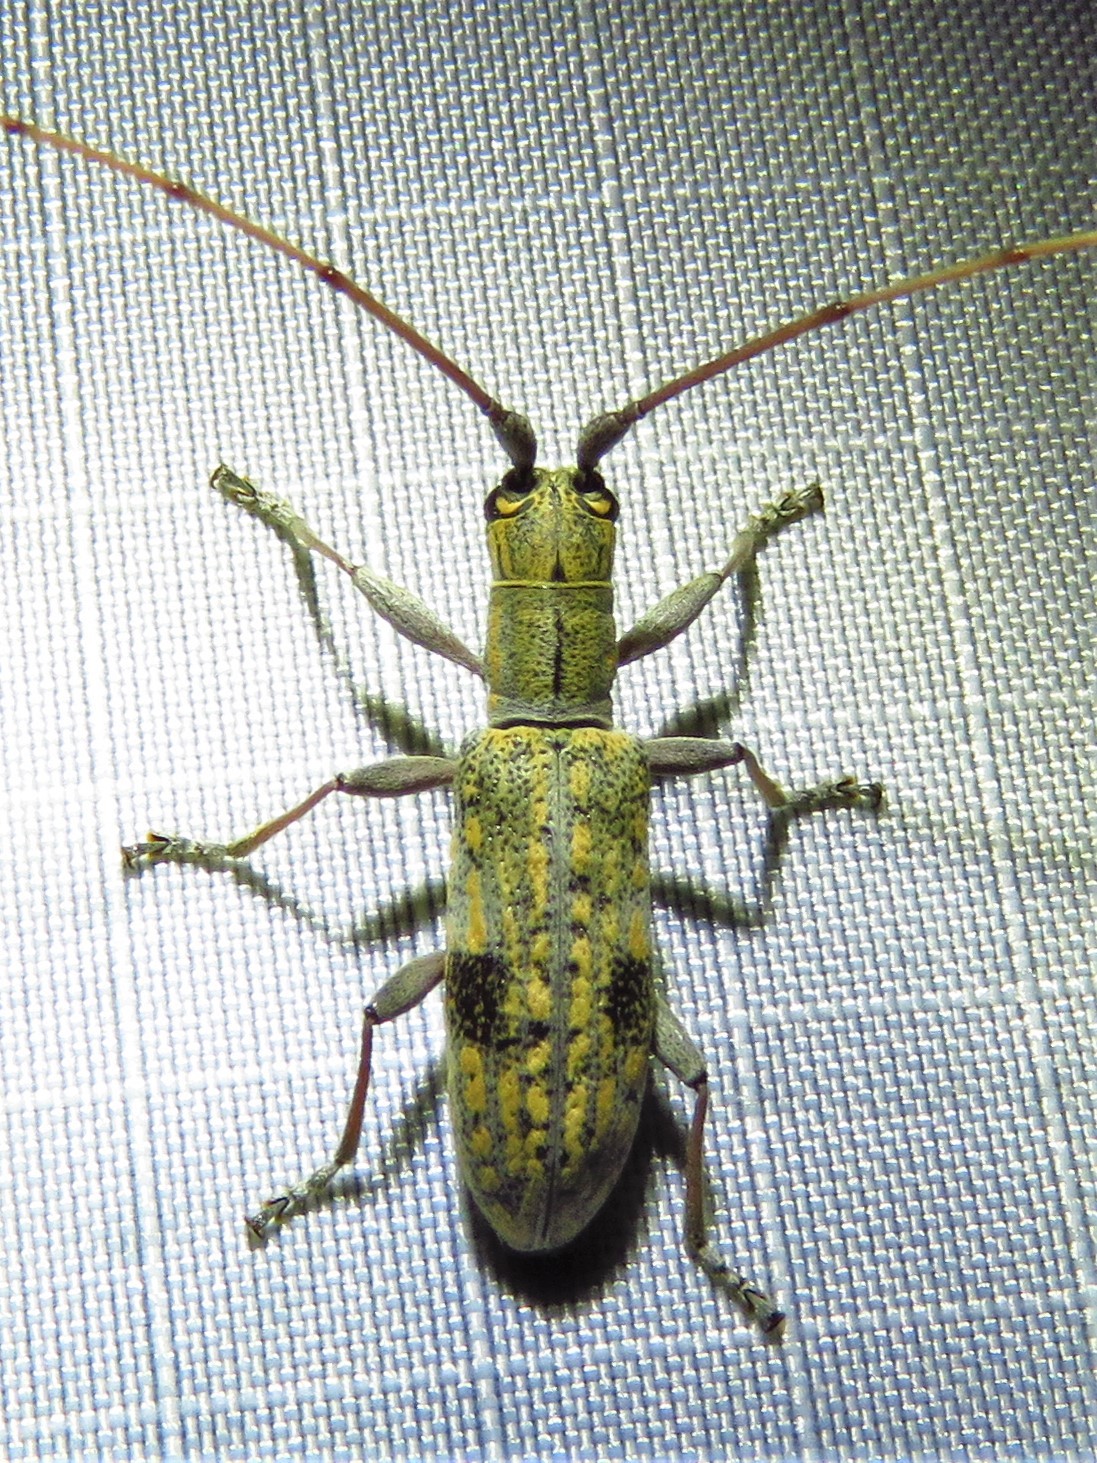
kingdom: Animalia
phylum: Arthropoda
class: Insecta
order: Coleoptera
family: Cerambycidae
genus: Dorcaschema
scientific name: Dorcaschema alternatum
